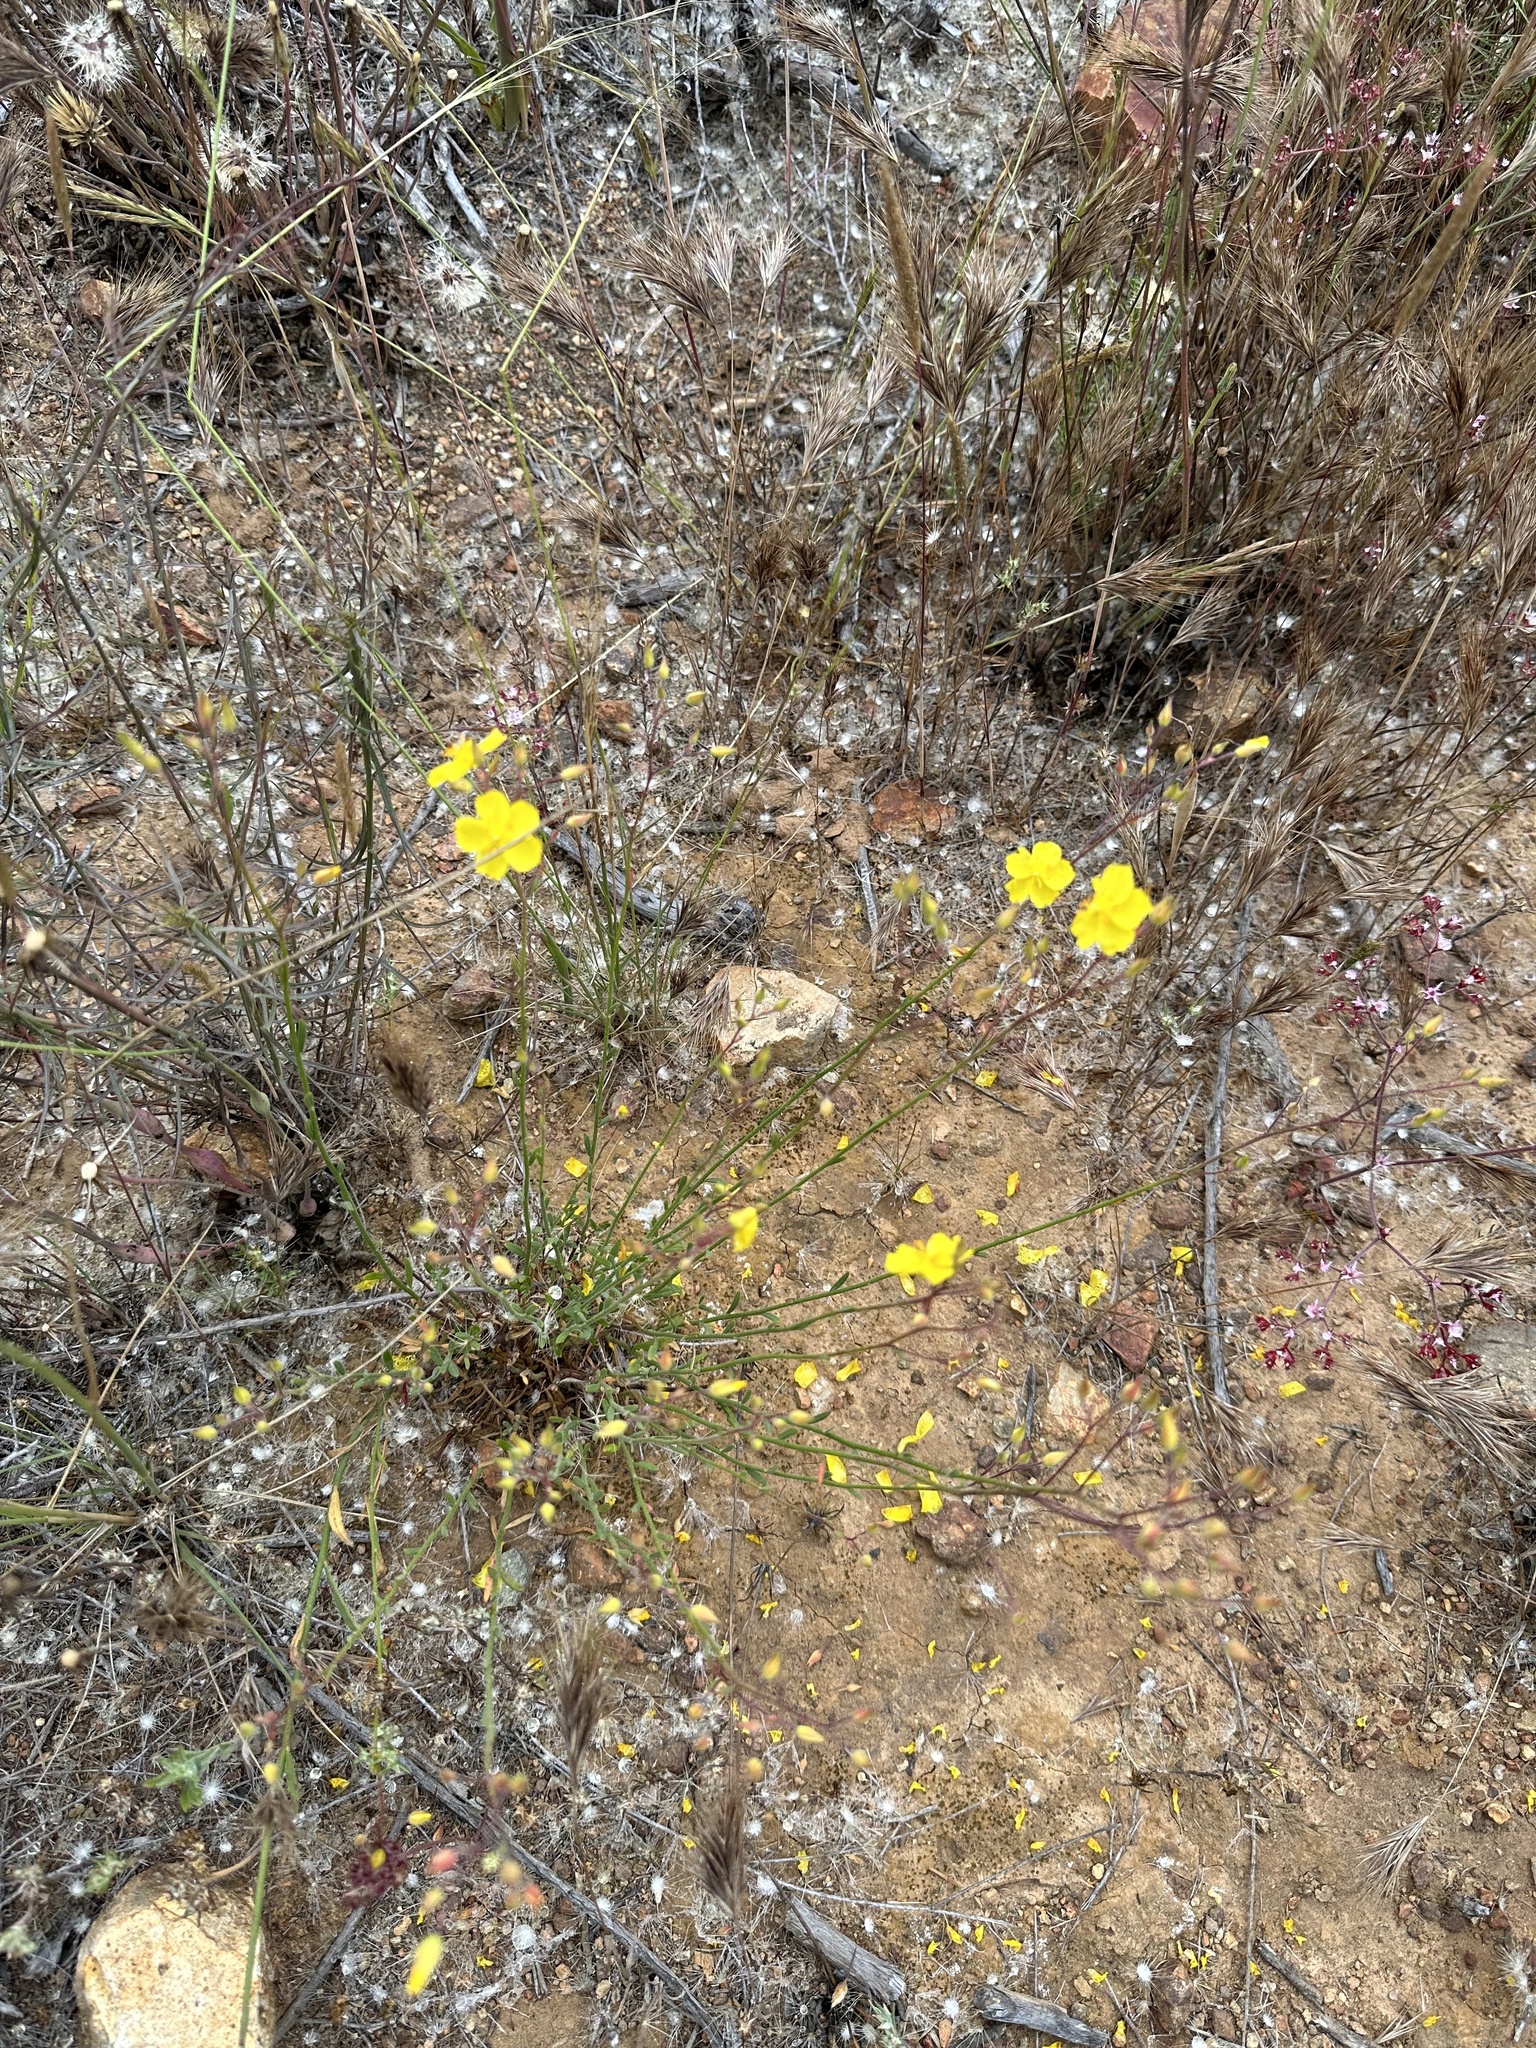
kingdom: Plantae
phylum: Tracheophyta
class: Magnoliopsida
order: Malvales
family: Cistaceae
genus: Crocanthemum
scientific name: Crocanthemum aldersonii
